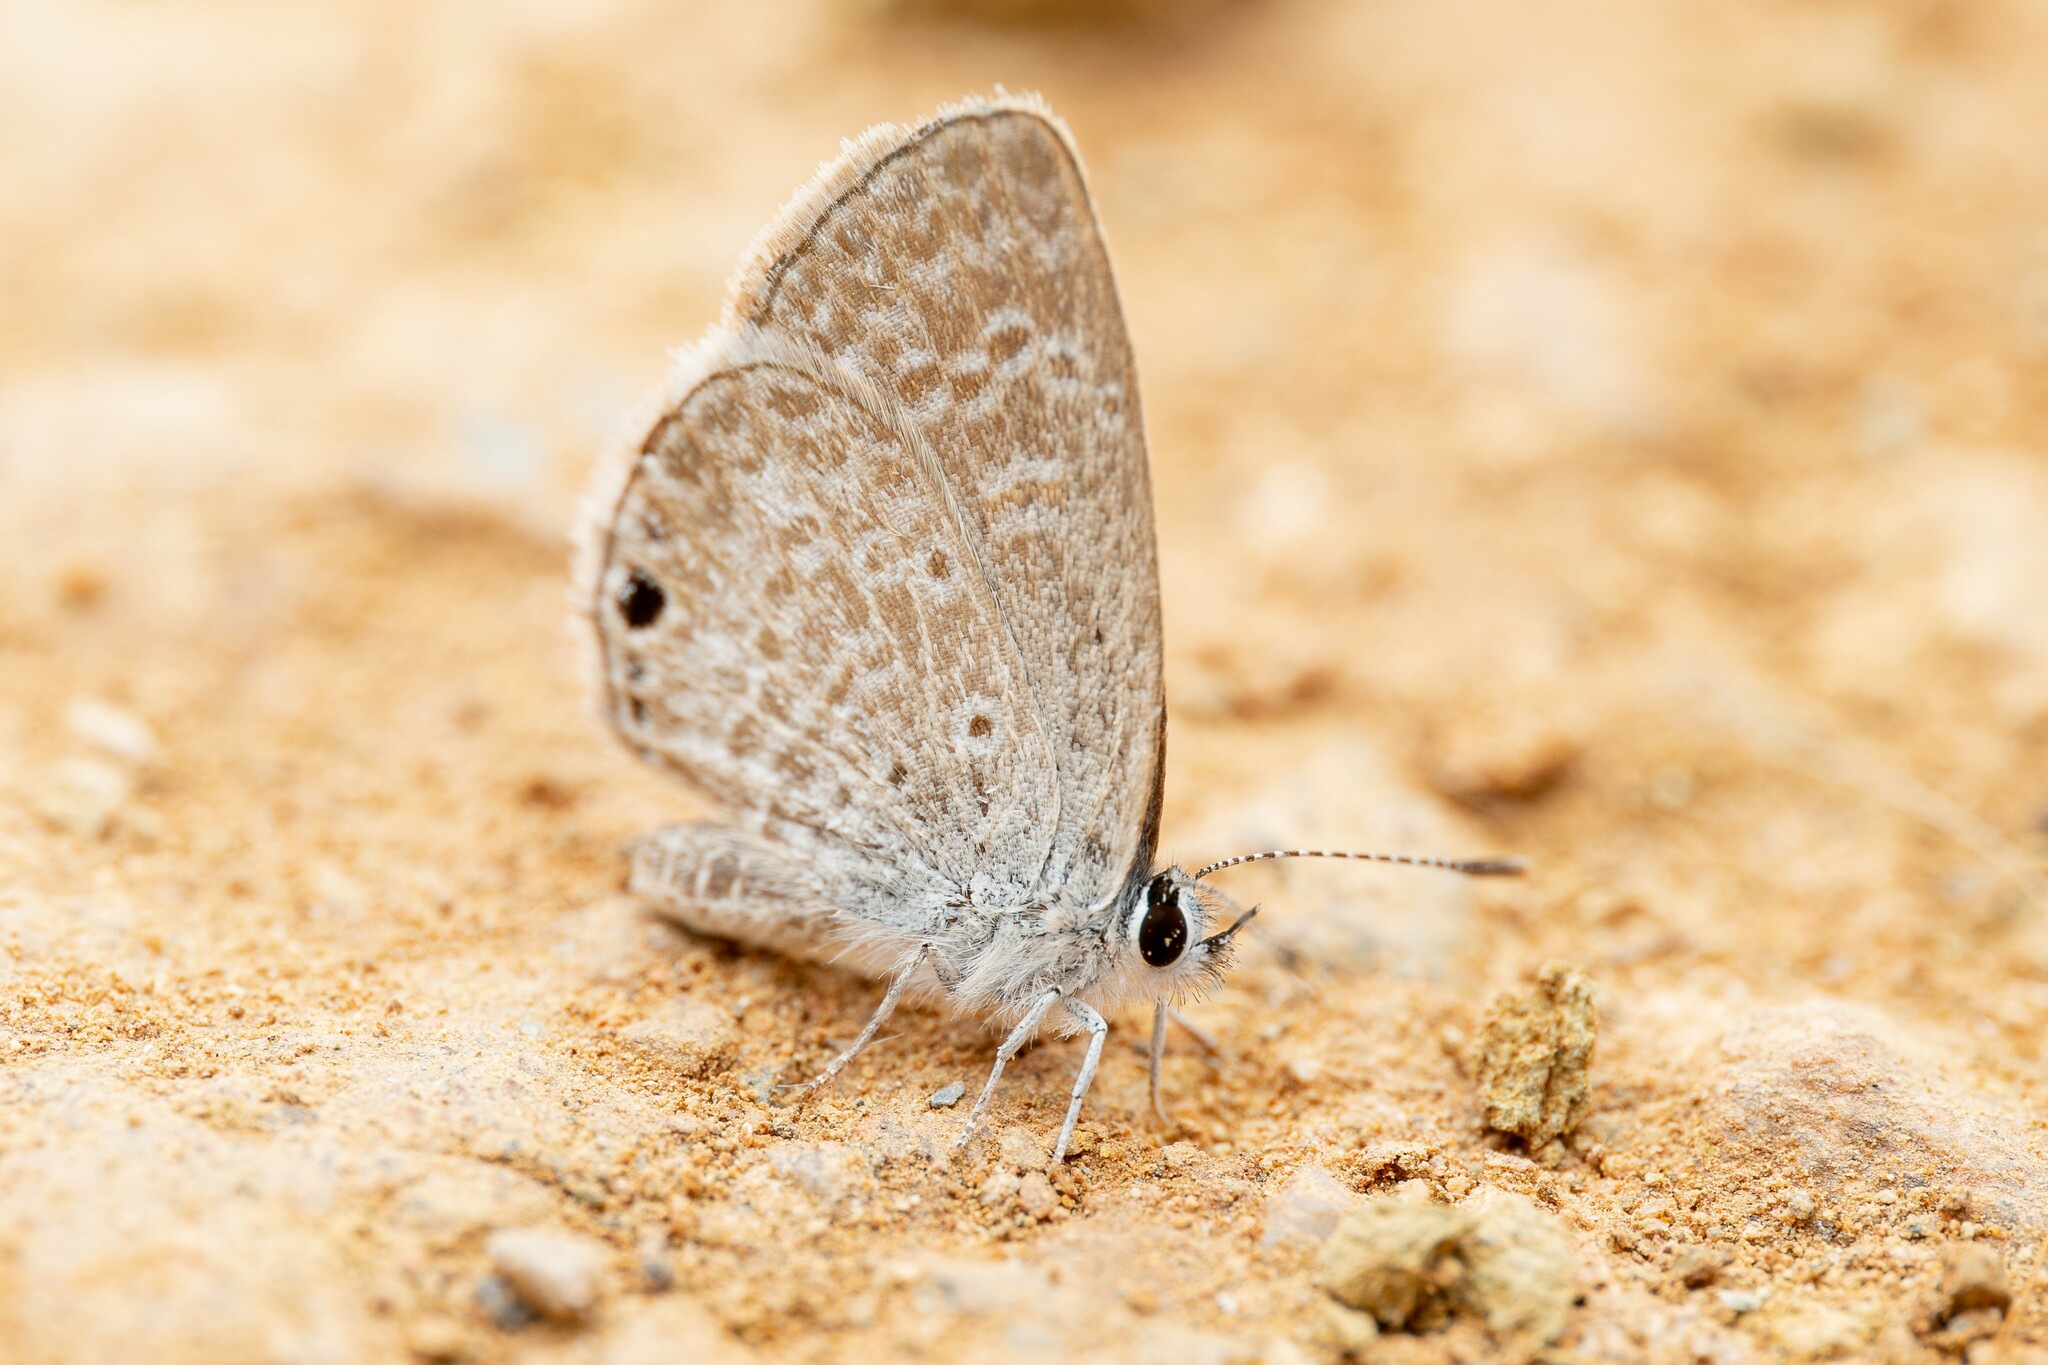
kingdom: Animalia
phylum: Arthropoda
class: Insecta
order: Lepidoptera
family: Lycaenidae
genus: Hemiargus
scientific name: Hemiargus ceraunus
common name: Ceraunus blue
